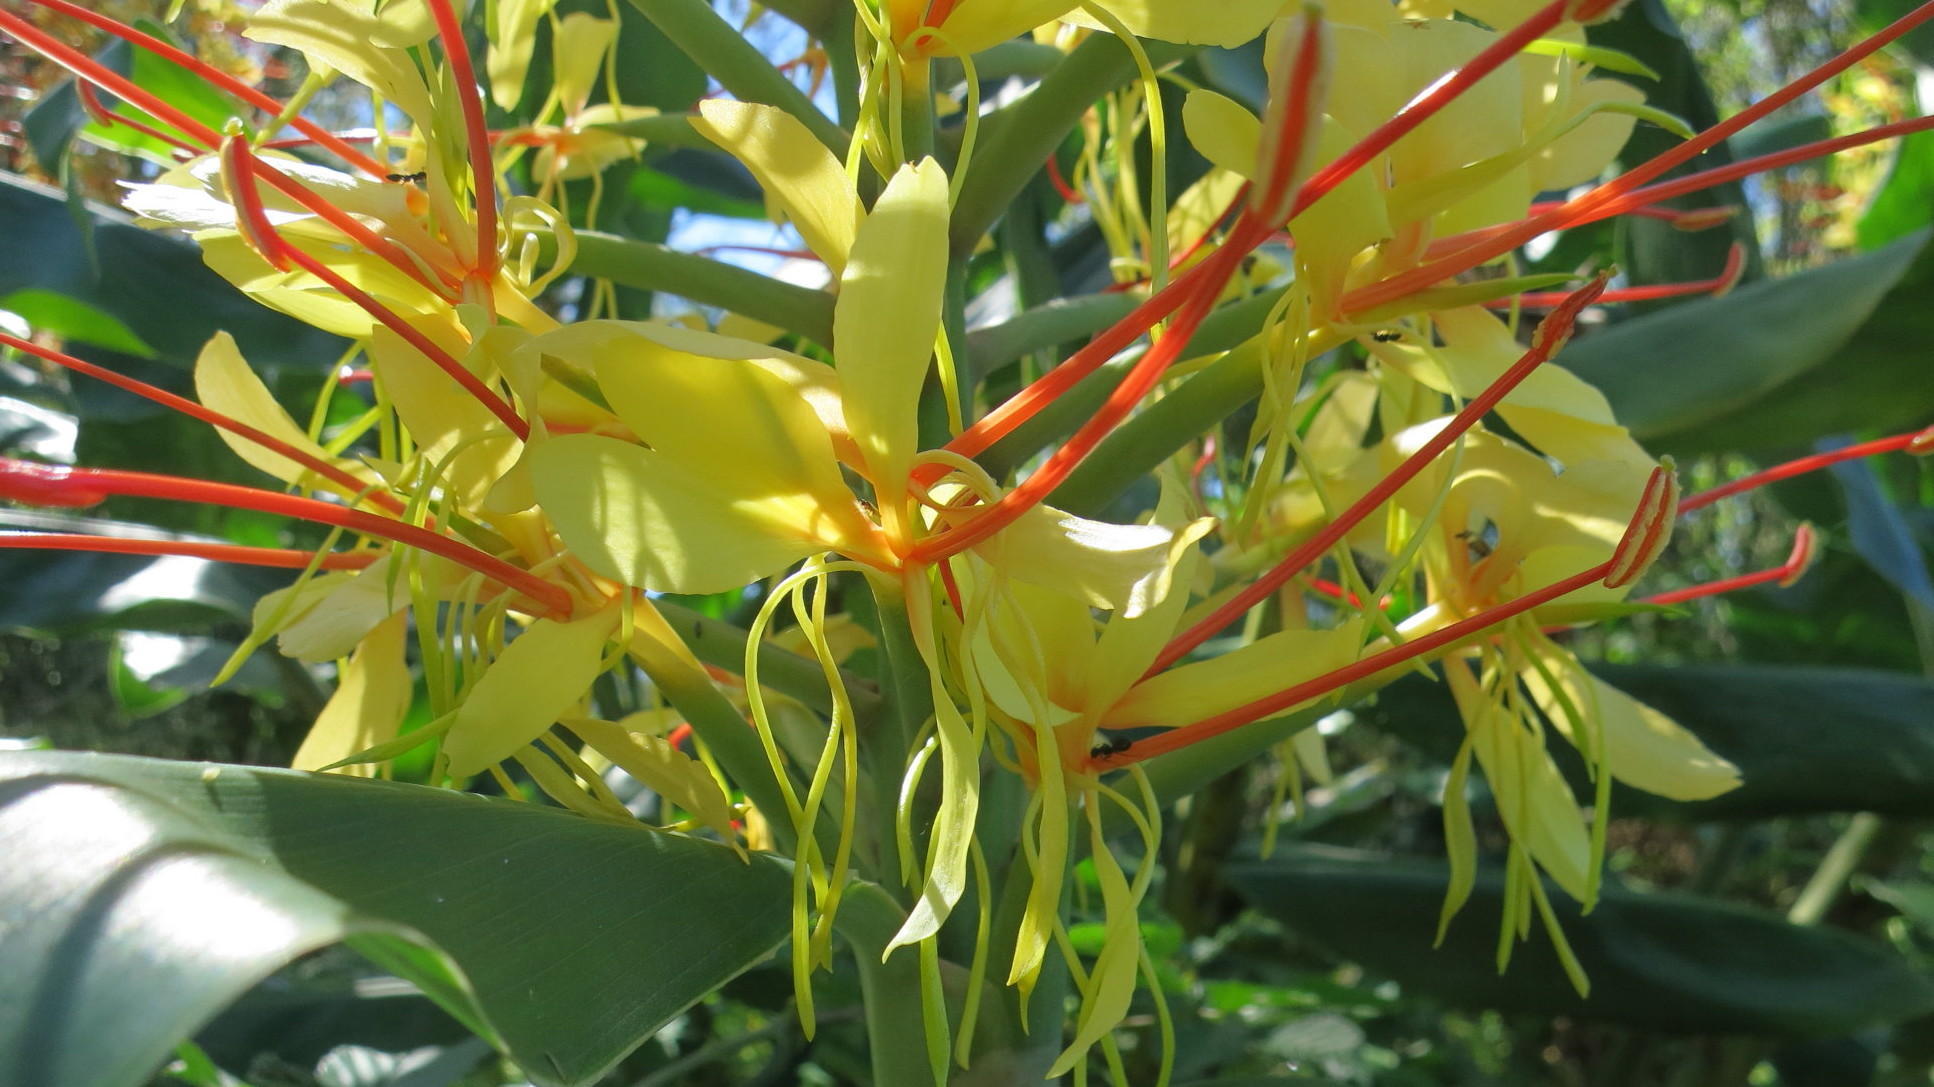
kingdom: Plantae
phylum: Tracheophyta
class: Liliopsida
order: Zingiberales
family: Zingiberaceae
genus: Hedychium
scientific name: Hedychium gardnerianum
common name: Himalayan ginger
